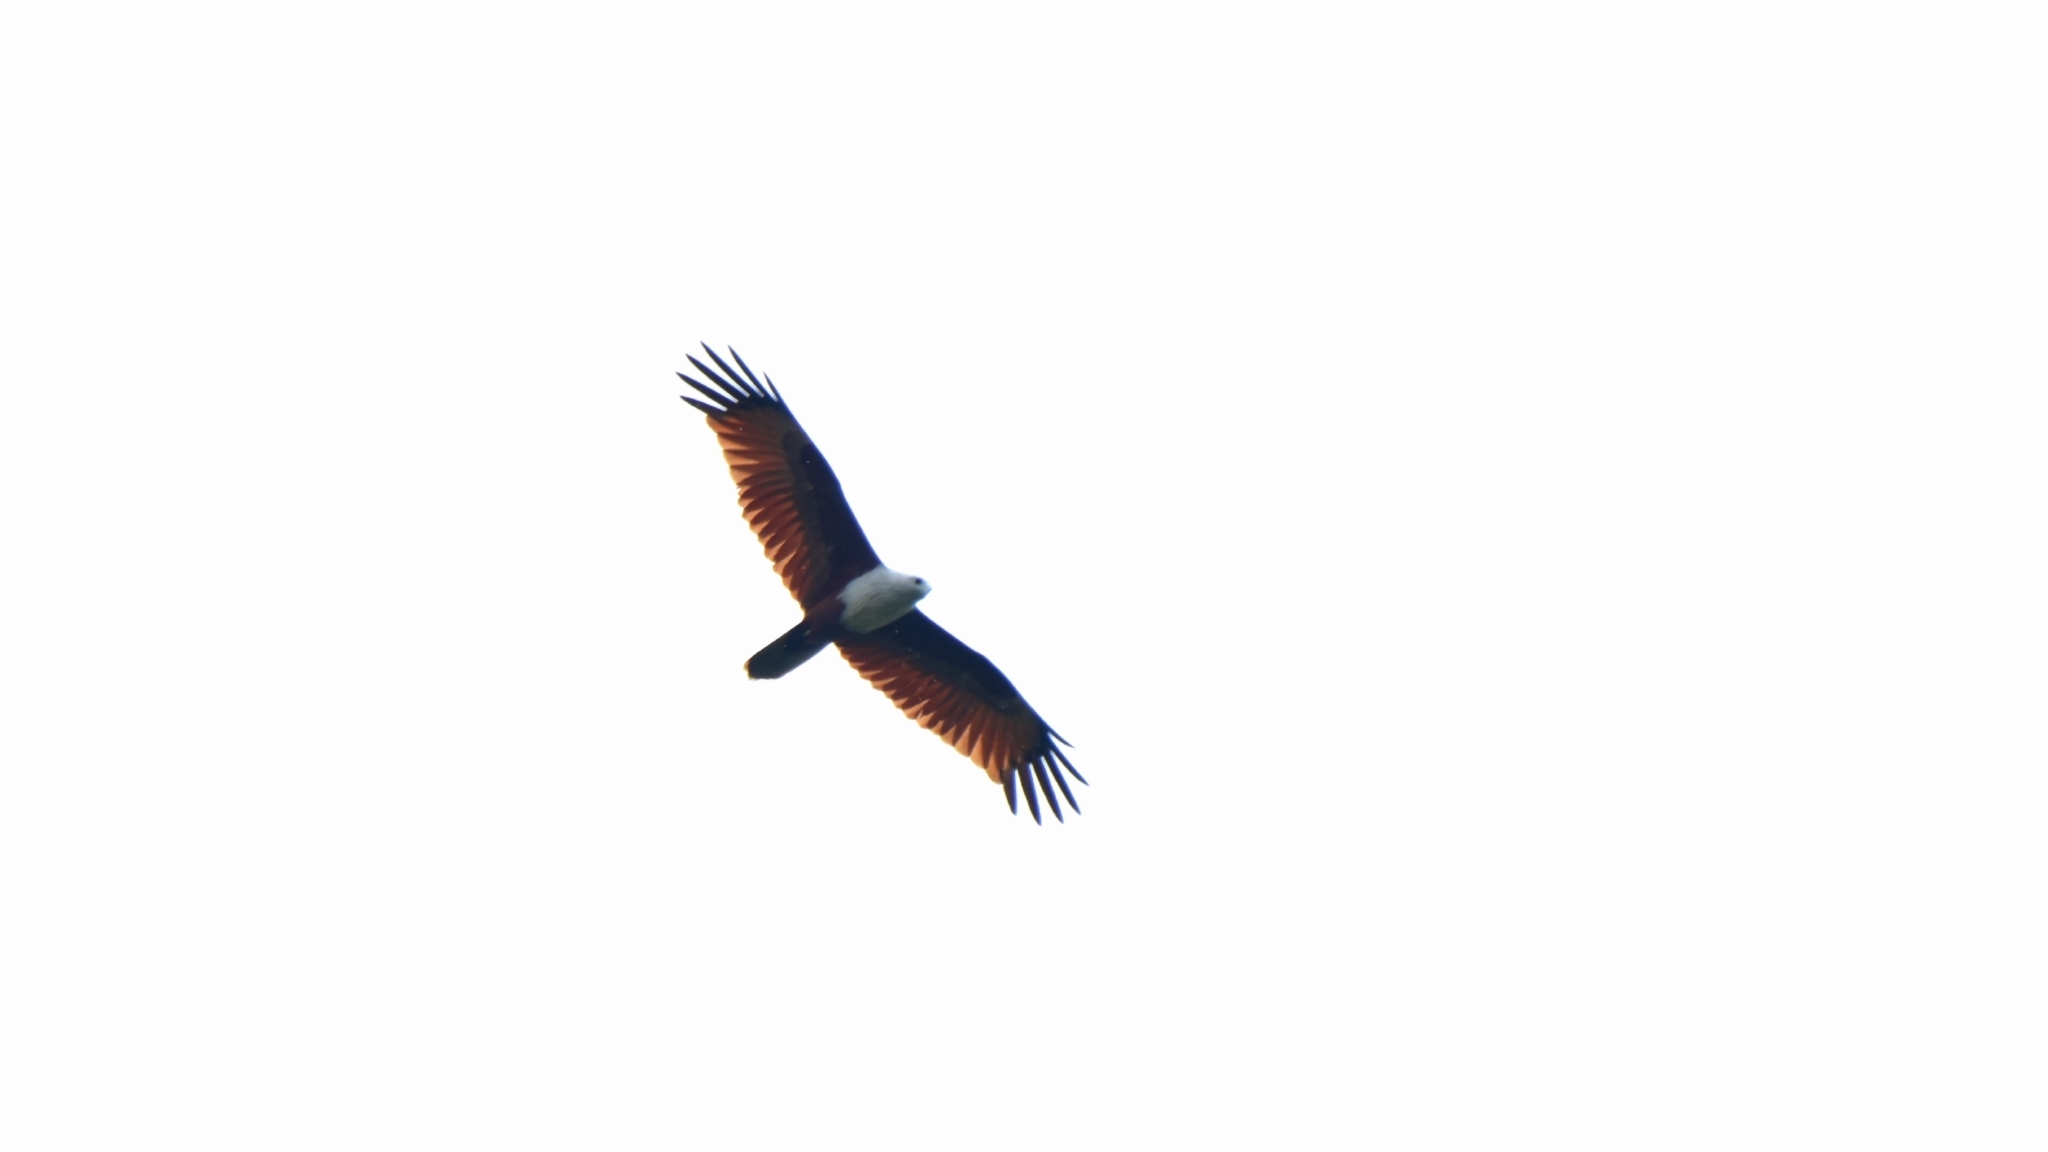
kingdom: Animalia
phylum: Chordata
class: Aves
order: Accipitriformes
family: Accipitridae
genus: Haliastur
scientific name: Haliastur indus
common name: Brahminy kite
